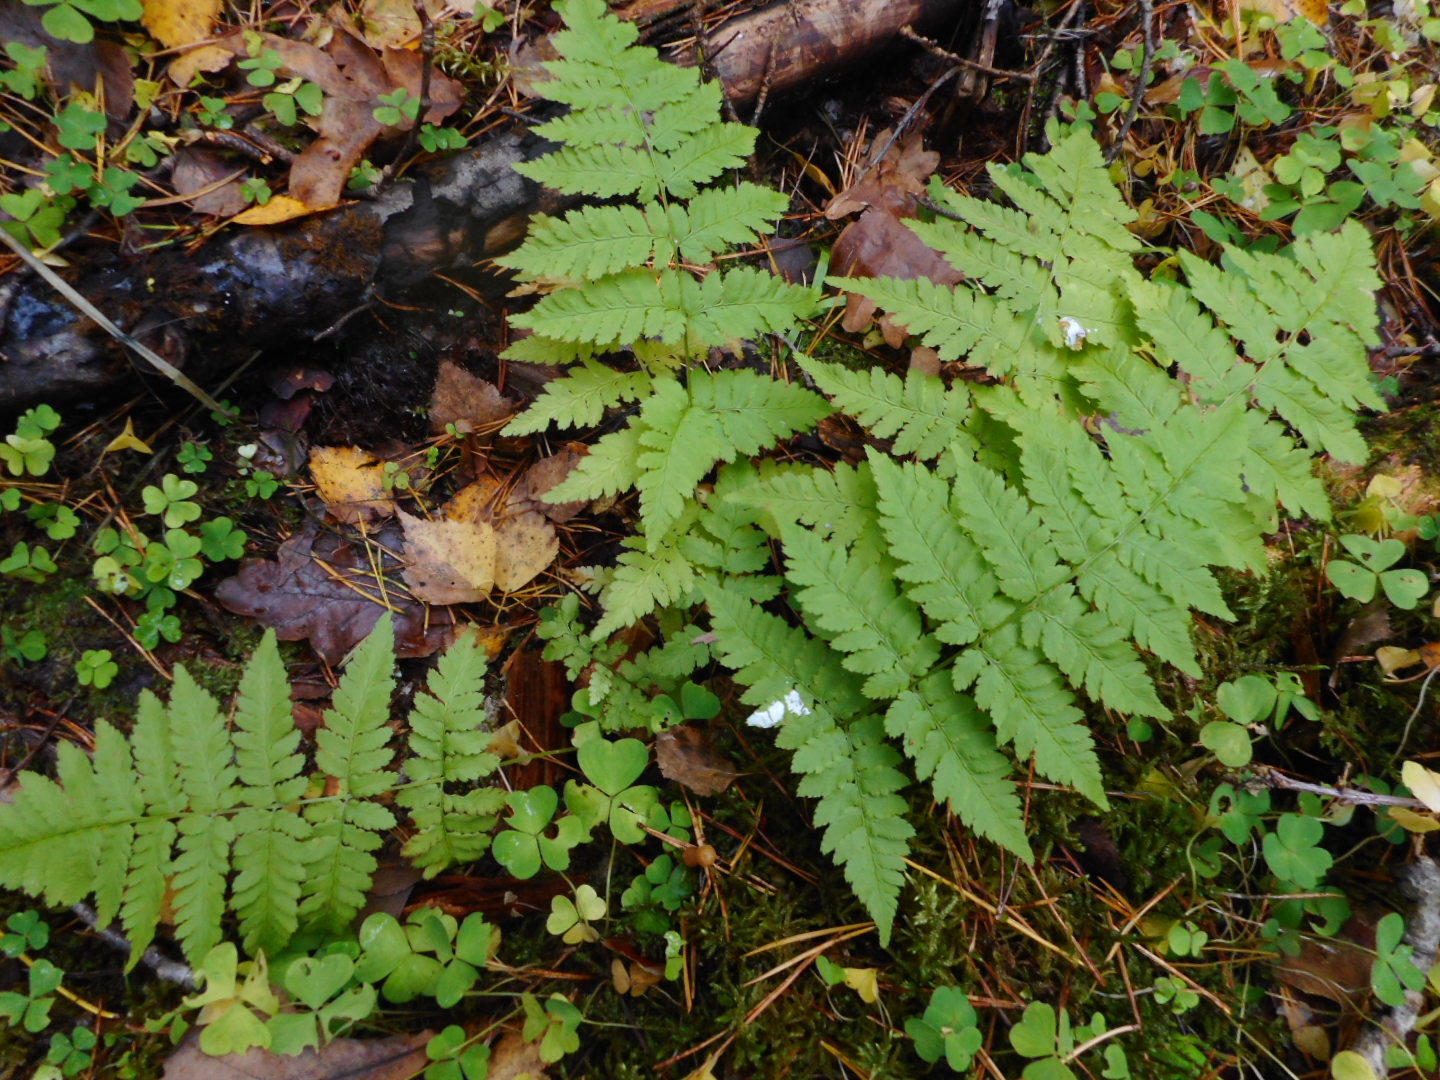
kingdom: Plantae
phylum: Tracheophyta
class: Polypodiopsida
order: Polypodiales
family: Dryopteridaceae
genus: Dryopteris
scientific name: Dryopteris carthusiana
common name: Narrow buckler-fern
